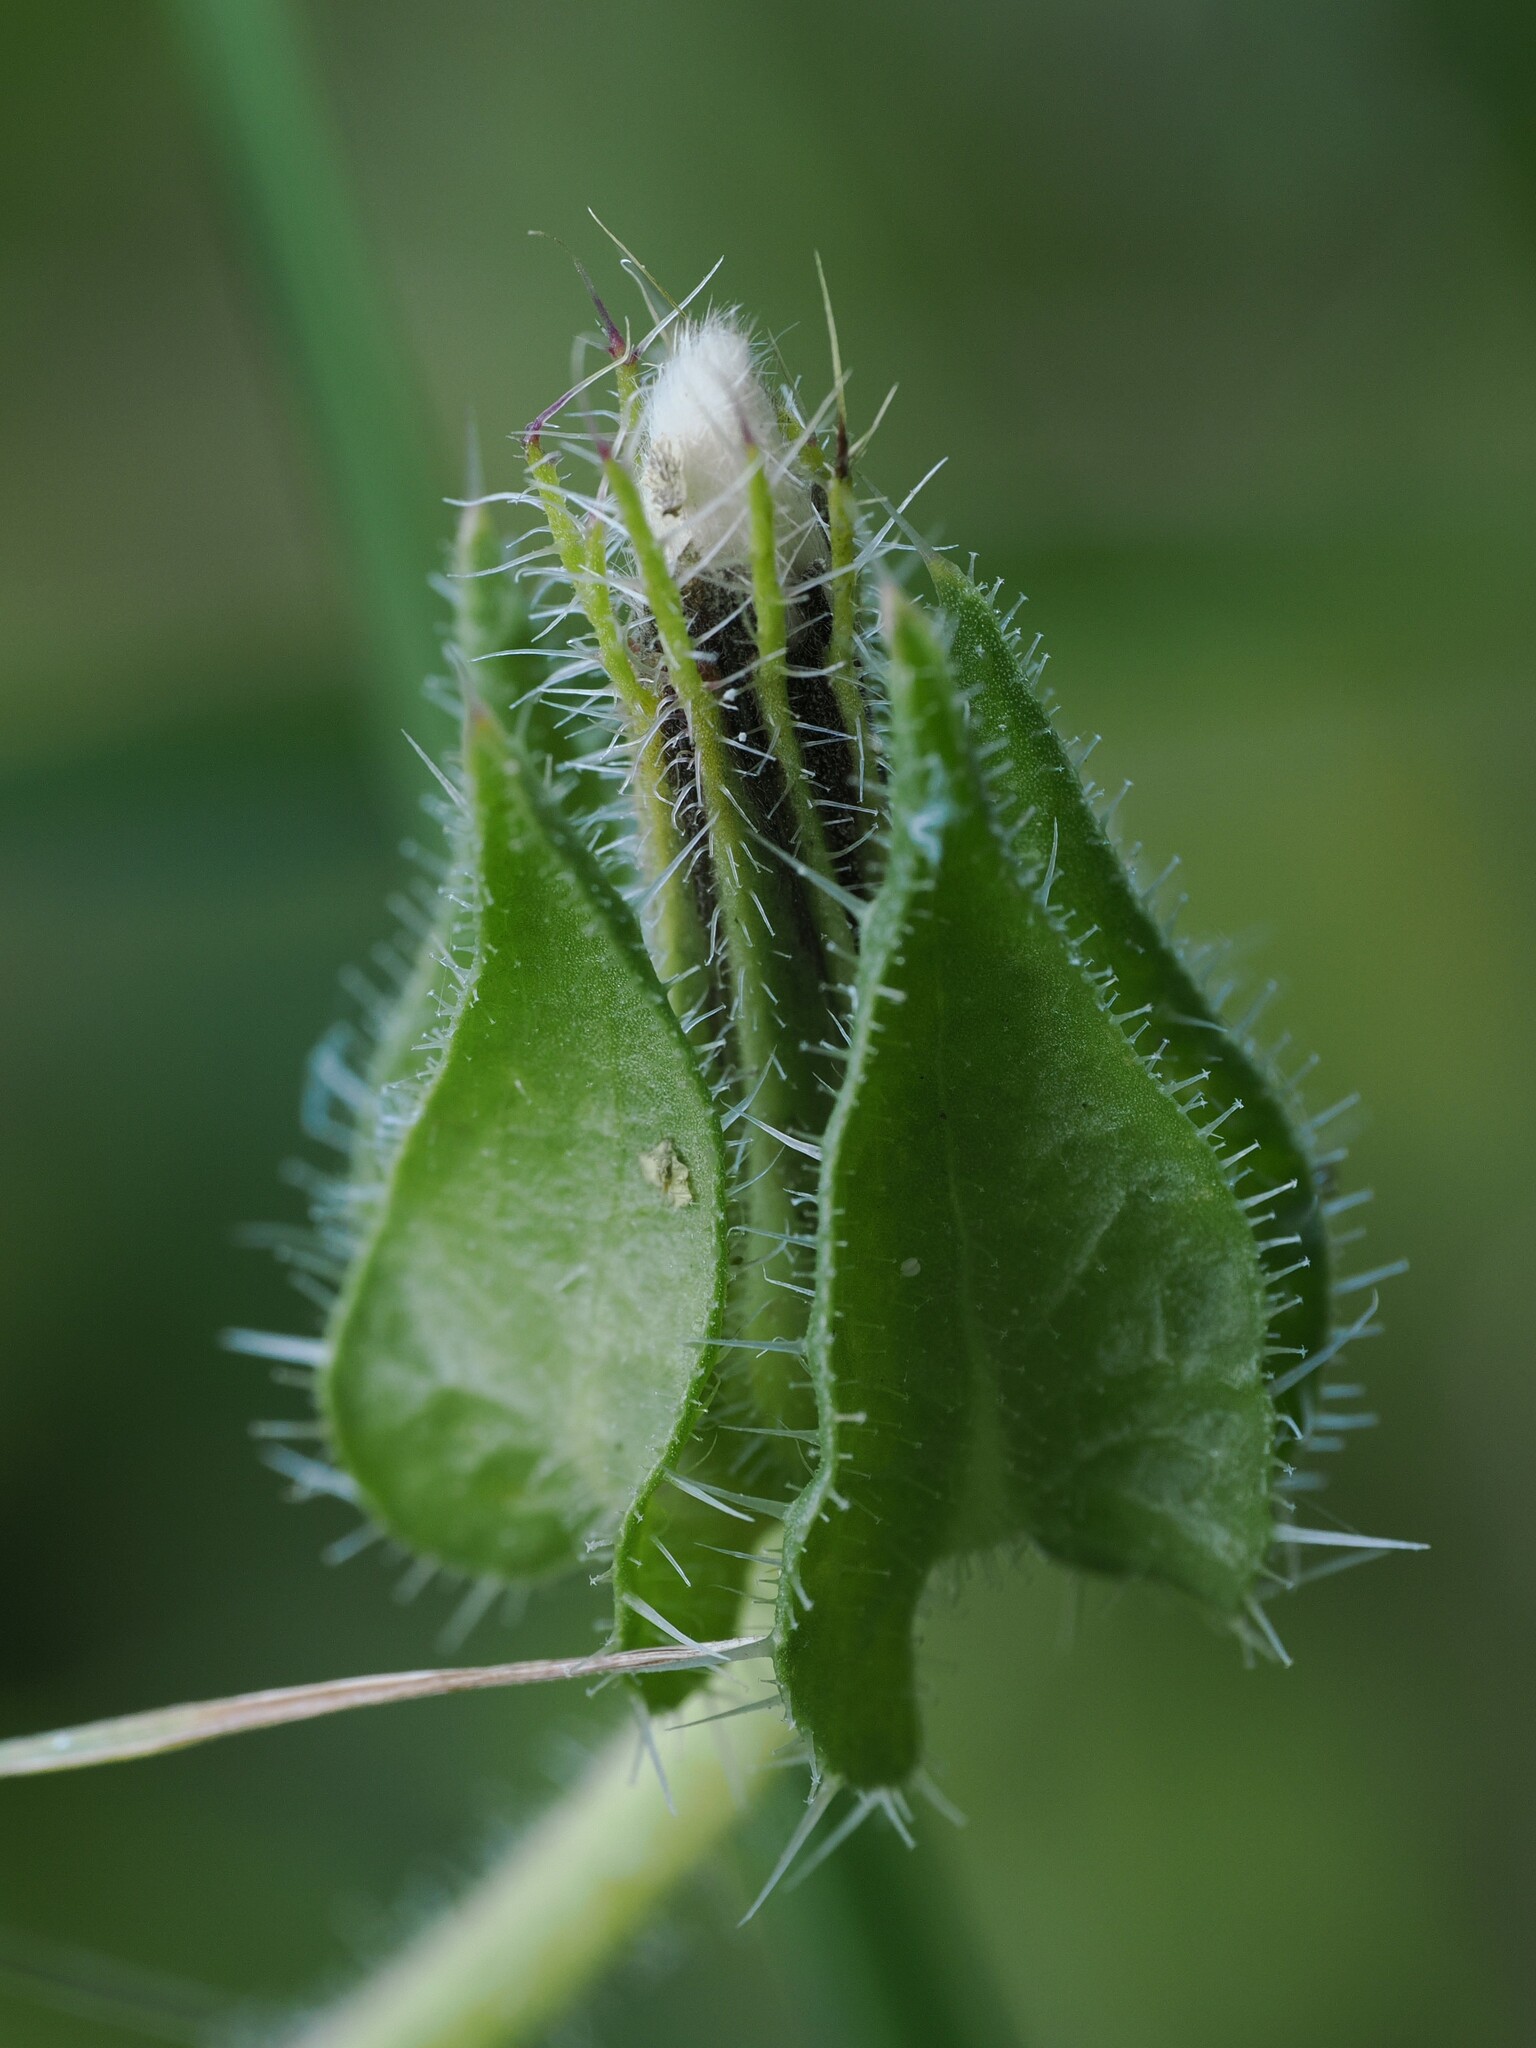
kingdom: Plantae
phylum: Tracheophyta
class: Magnoliopsida
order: Asterales
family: Asteraceae
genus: Helminthotheca
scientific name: Helminthotheca echioides
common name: Ox-tongue
